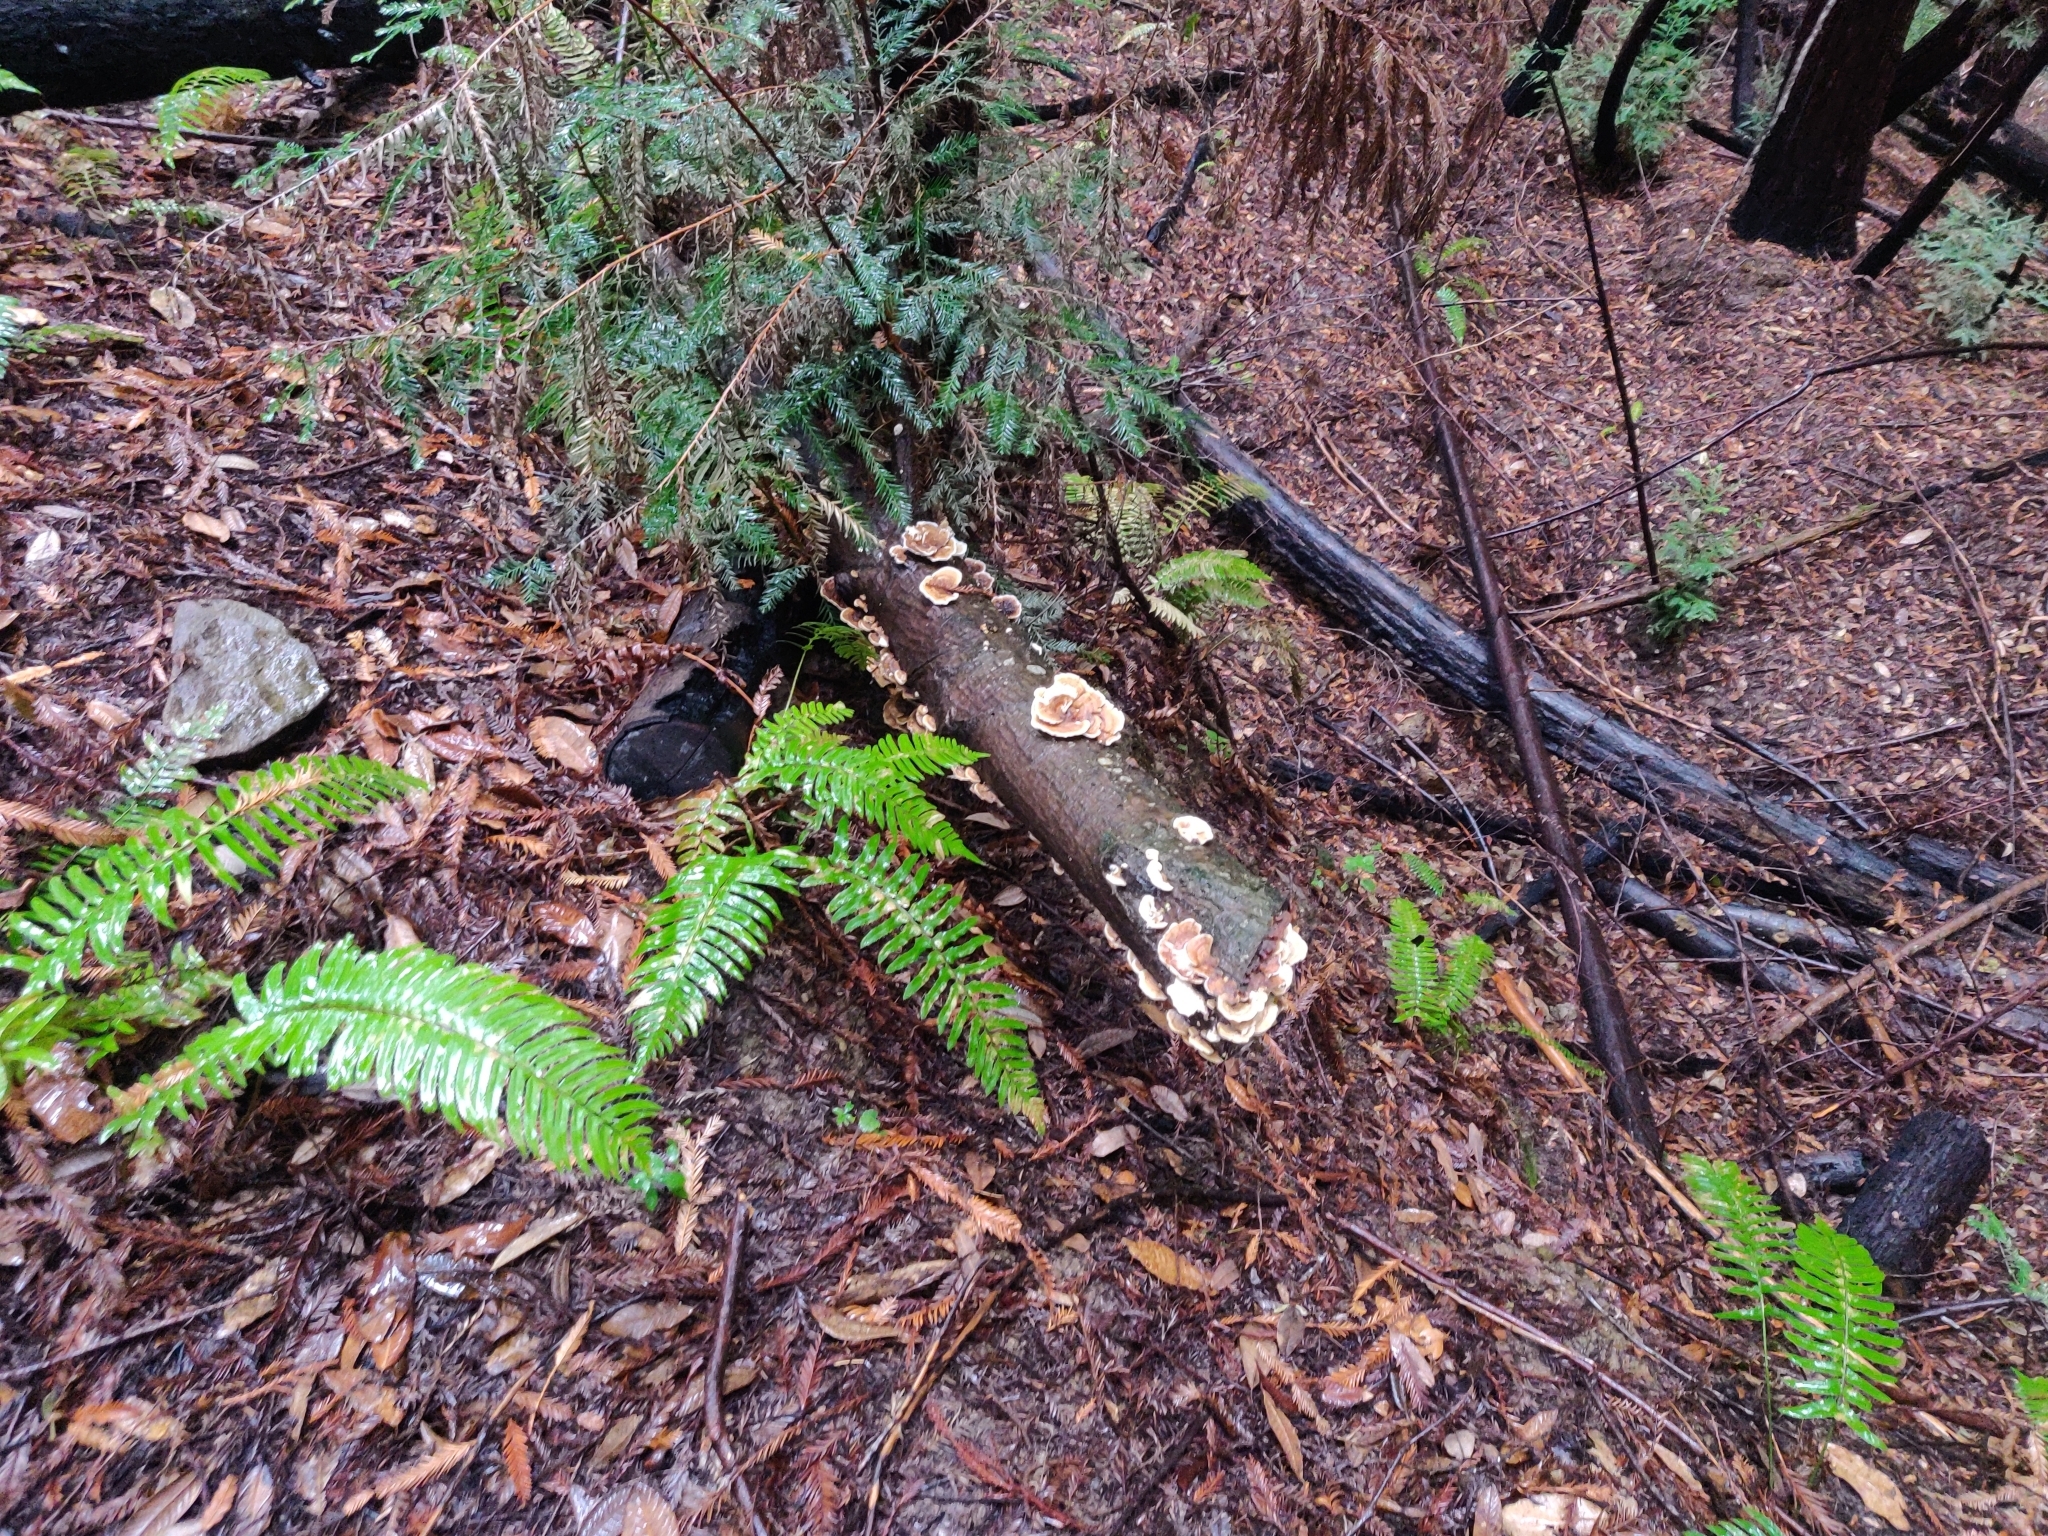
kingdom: Fungi
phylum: Basidiomycota
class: Agaricomycetes
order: Polyporales
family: Polyporaceae
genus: Trametes
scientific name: Trametes versicolor
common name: Turkeytail
